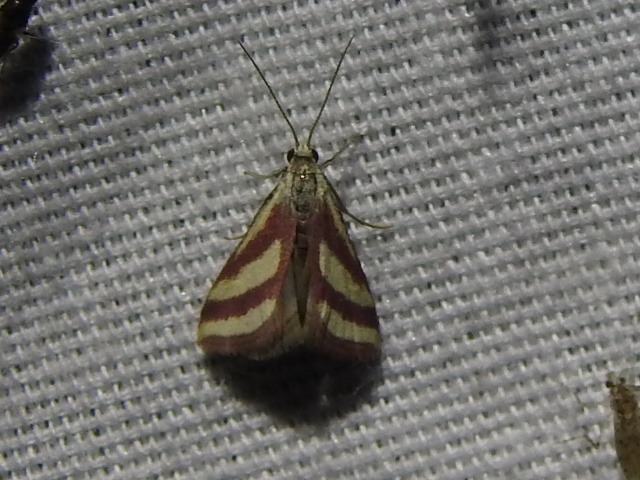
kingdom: Animalia
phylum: Arthropoda
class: Insecta
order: Lepidoptera
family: Crambidae
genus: Microtheoris
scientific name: Microtheoris vibicalis
